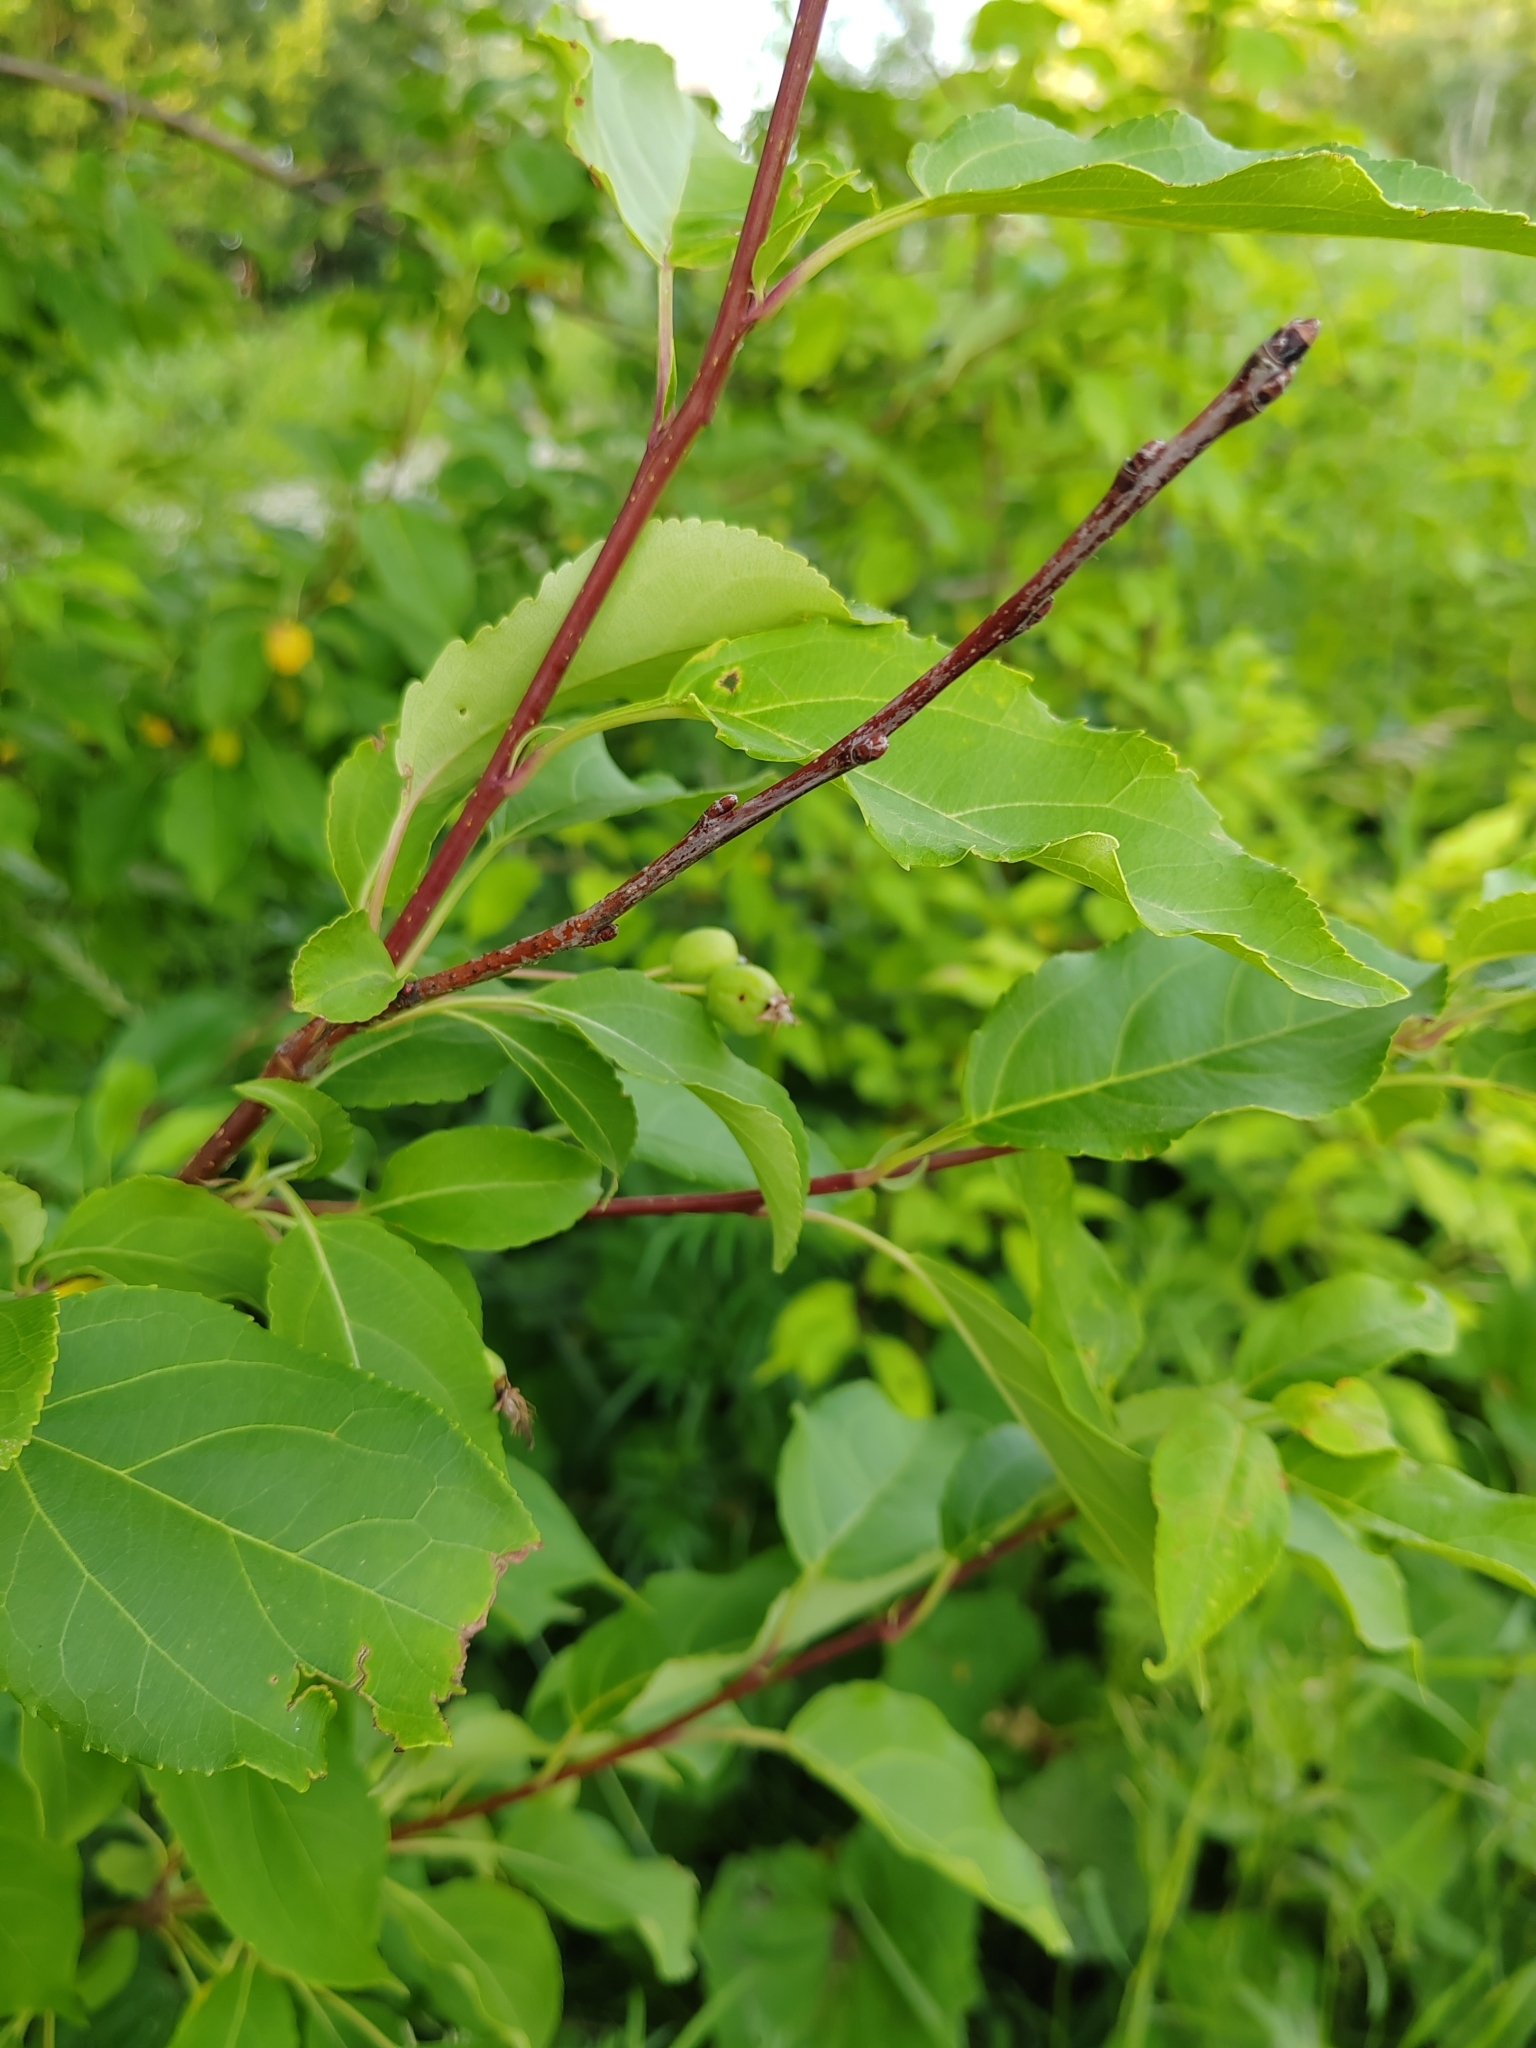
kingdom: Plantae
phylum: Tracheophyta
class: Magnoliopsida
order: Rosales
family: Rosaceae
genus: Malus
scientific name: Malus baccata
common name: Siberian crab
